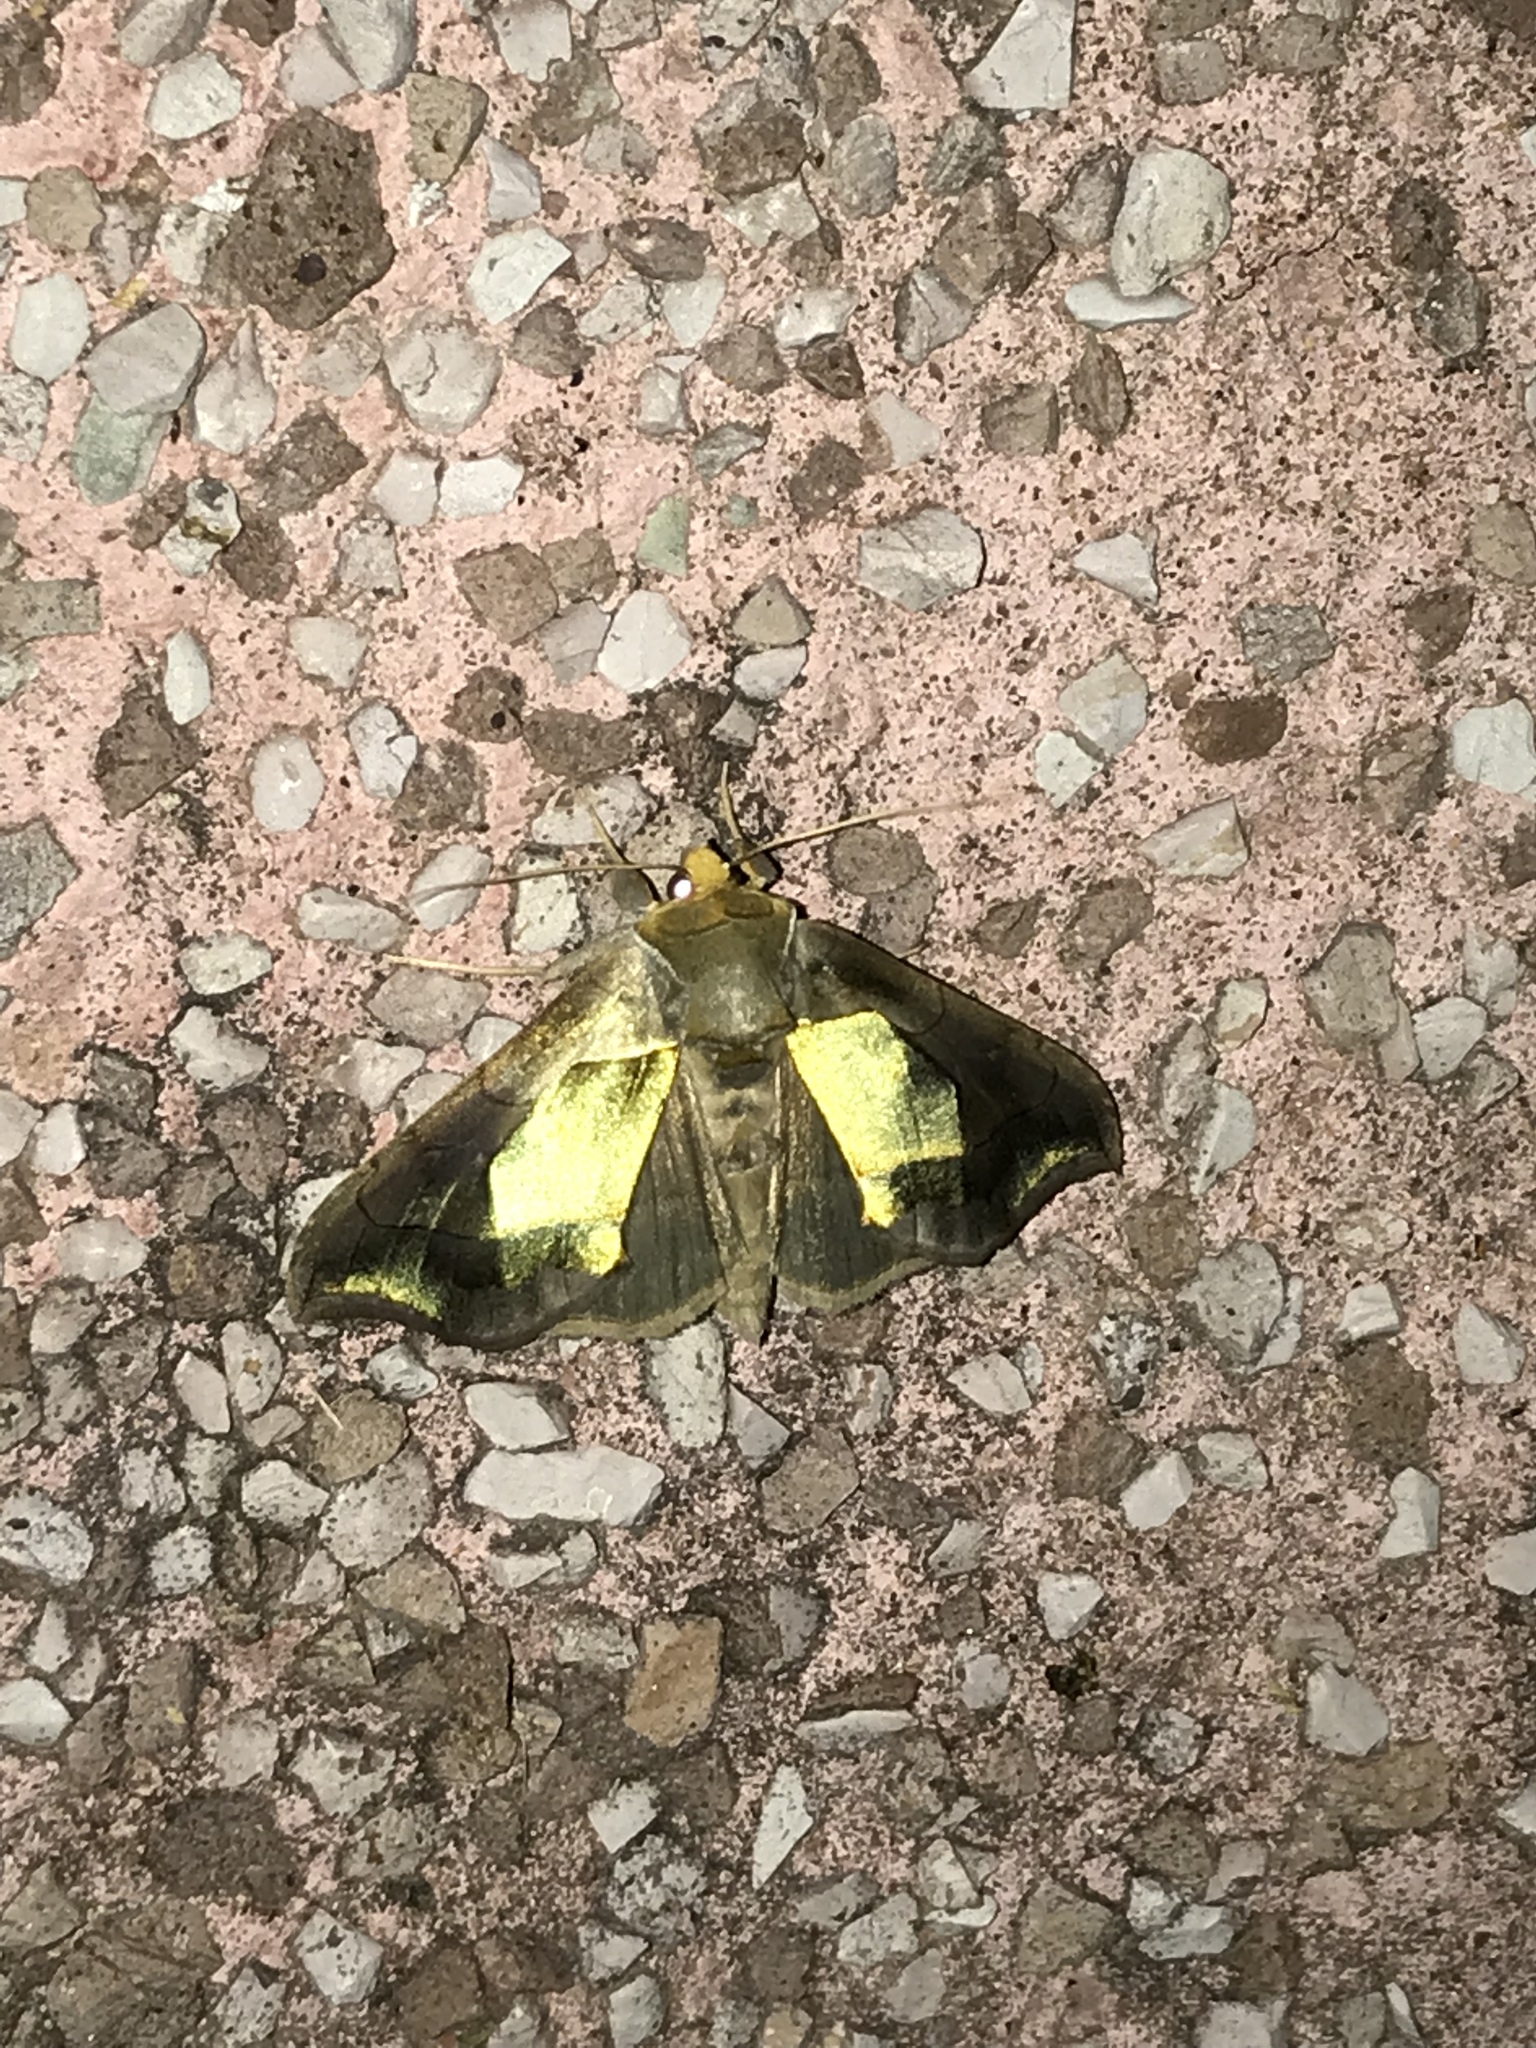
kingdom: Animalia
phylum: Arthropoda
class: Insecta
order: Lepidoptera
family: Noctuidae
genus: Diachrysia
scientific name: Diachrysia balluca
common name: Green-patched looper moth
